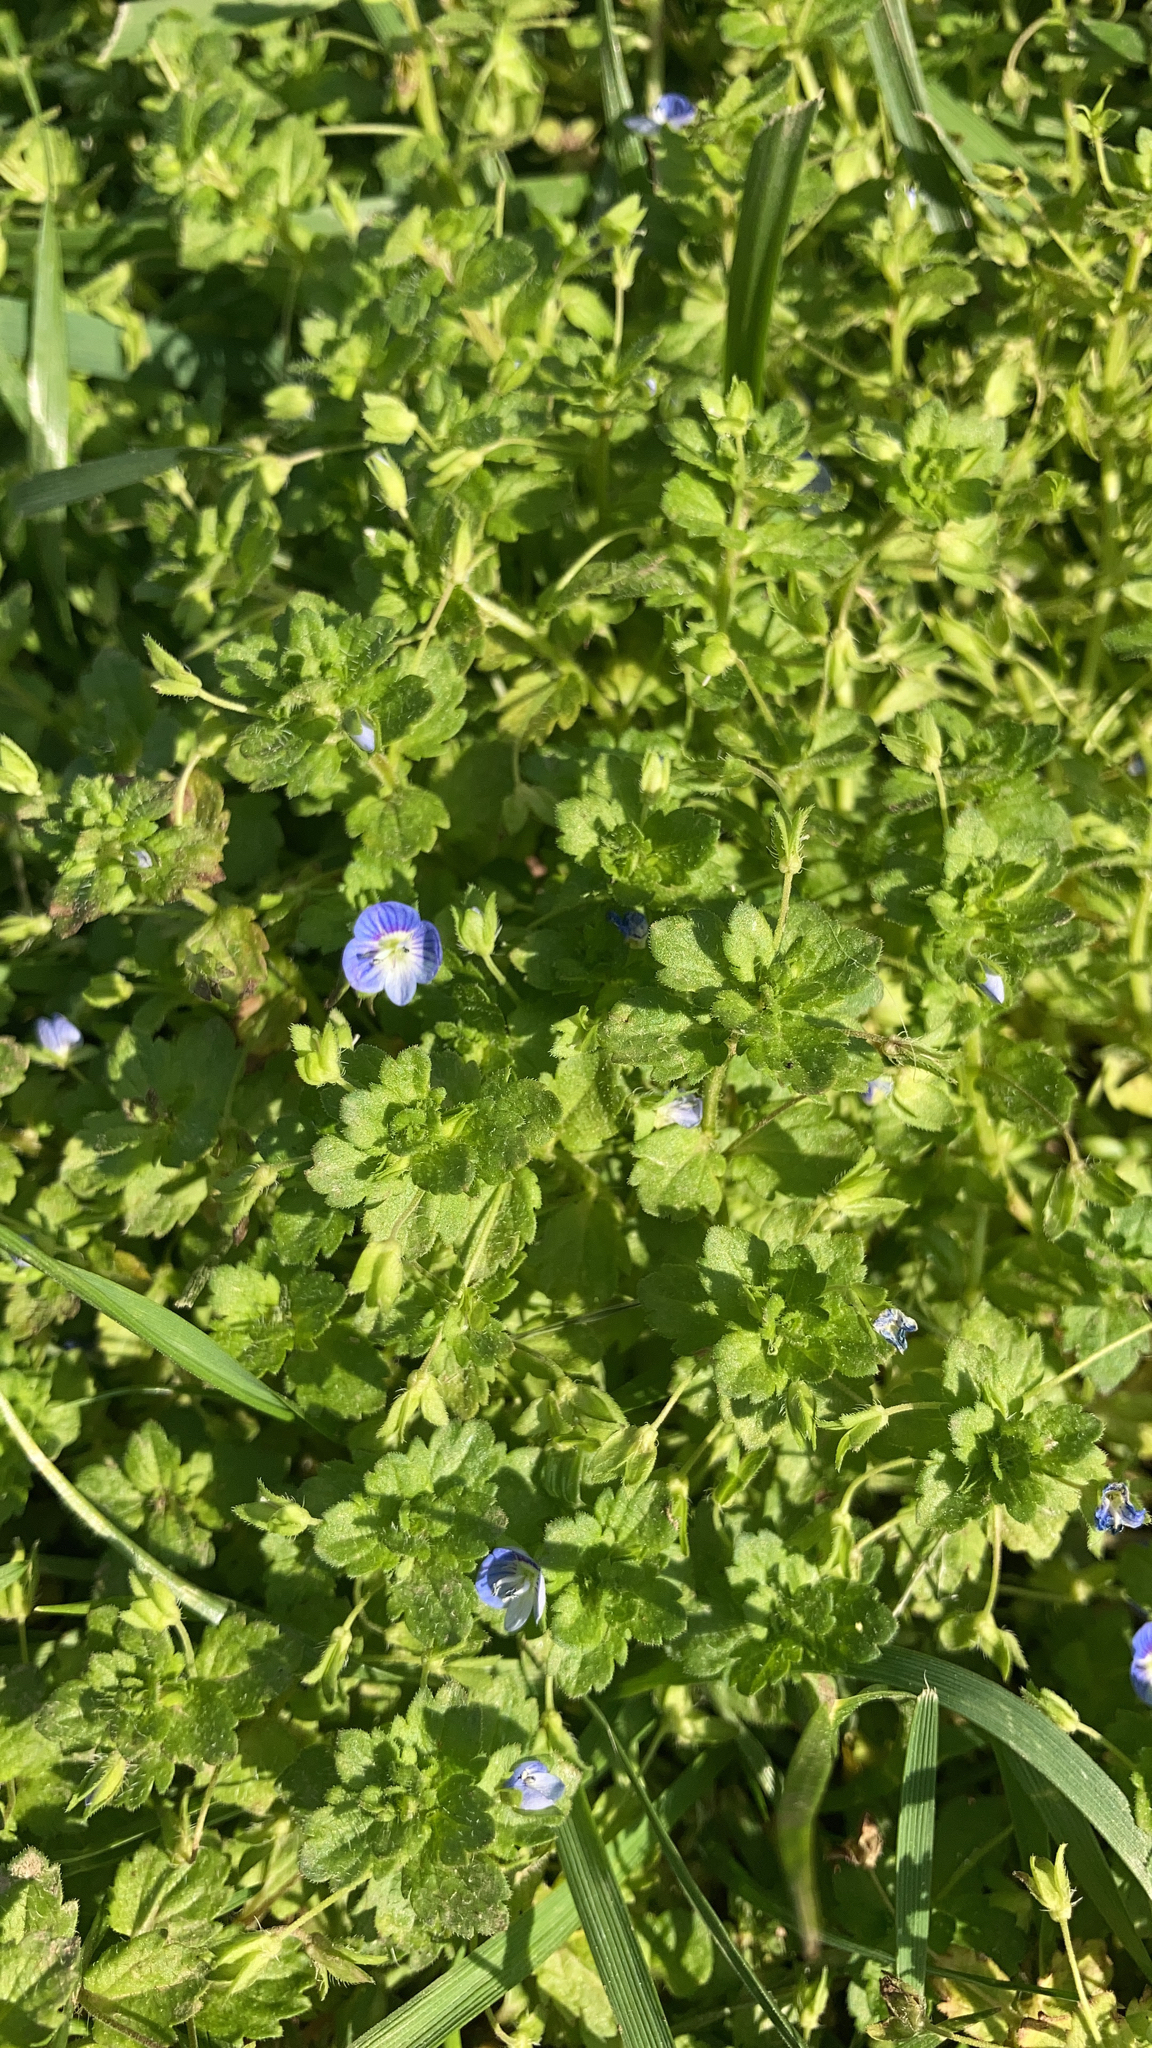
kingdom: Plantae
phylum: Tracheophyta
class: Magnoliopsida
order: Lamiales
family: Plantaginaceae
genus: Veronica
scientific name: Veronica persica
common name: Common field-speedwell
